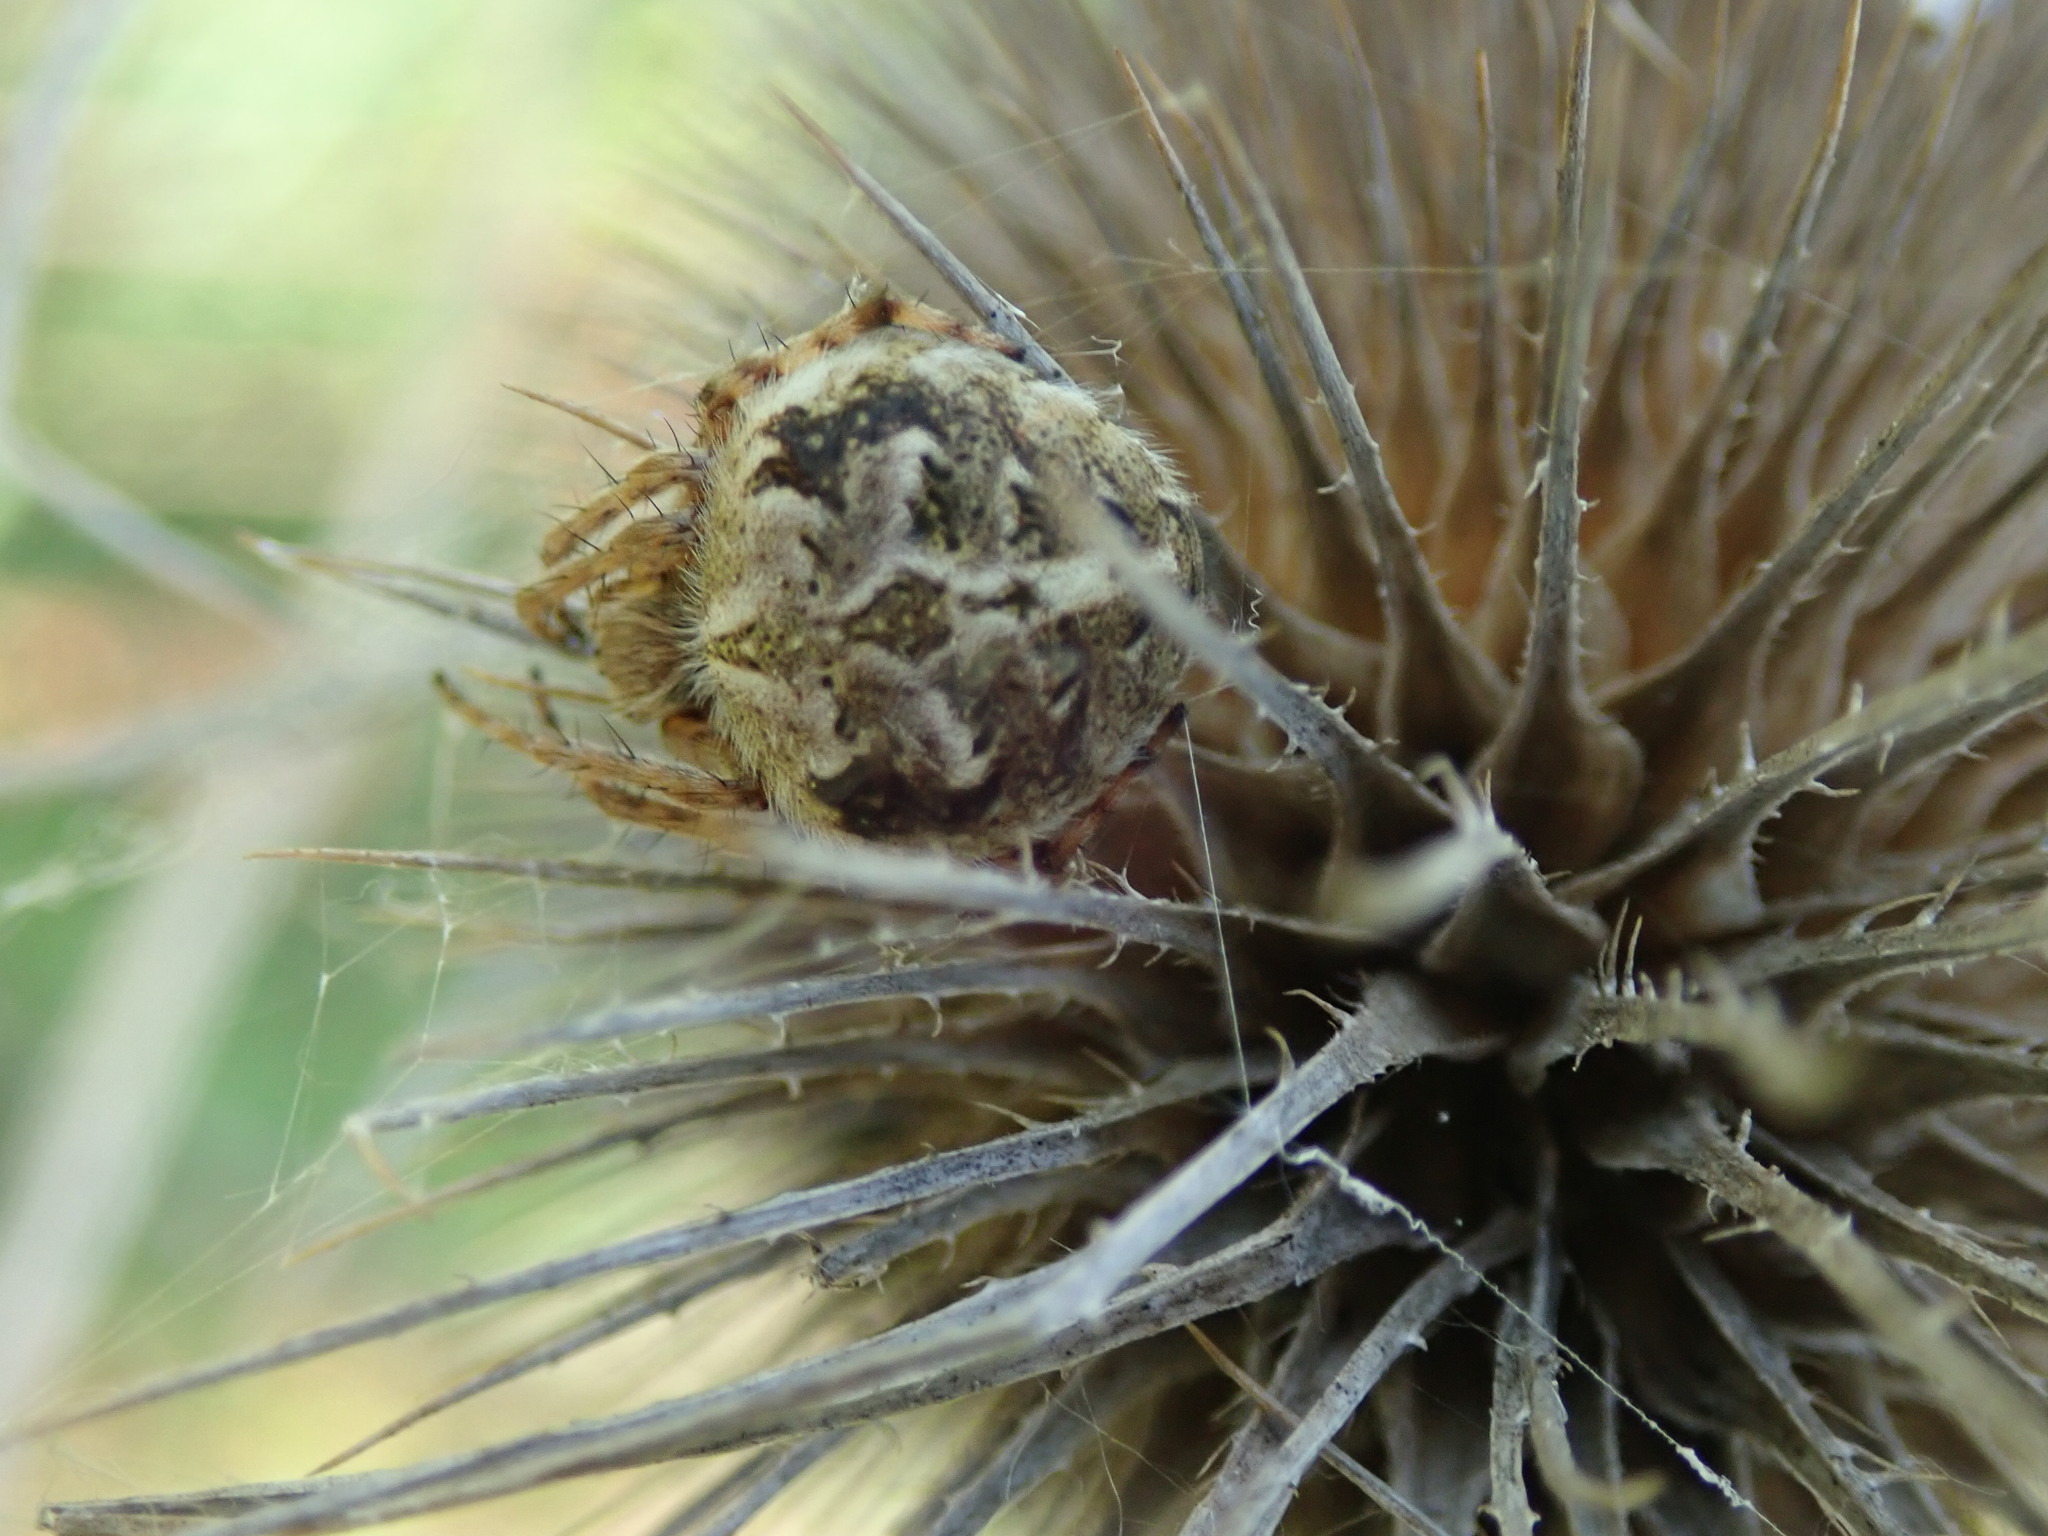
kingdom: Animalia
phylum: Arthropoda
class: Arachnida
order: Araneae
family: Araneidae
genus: Agalenatea
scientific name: Agalenatea redii
